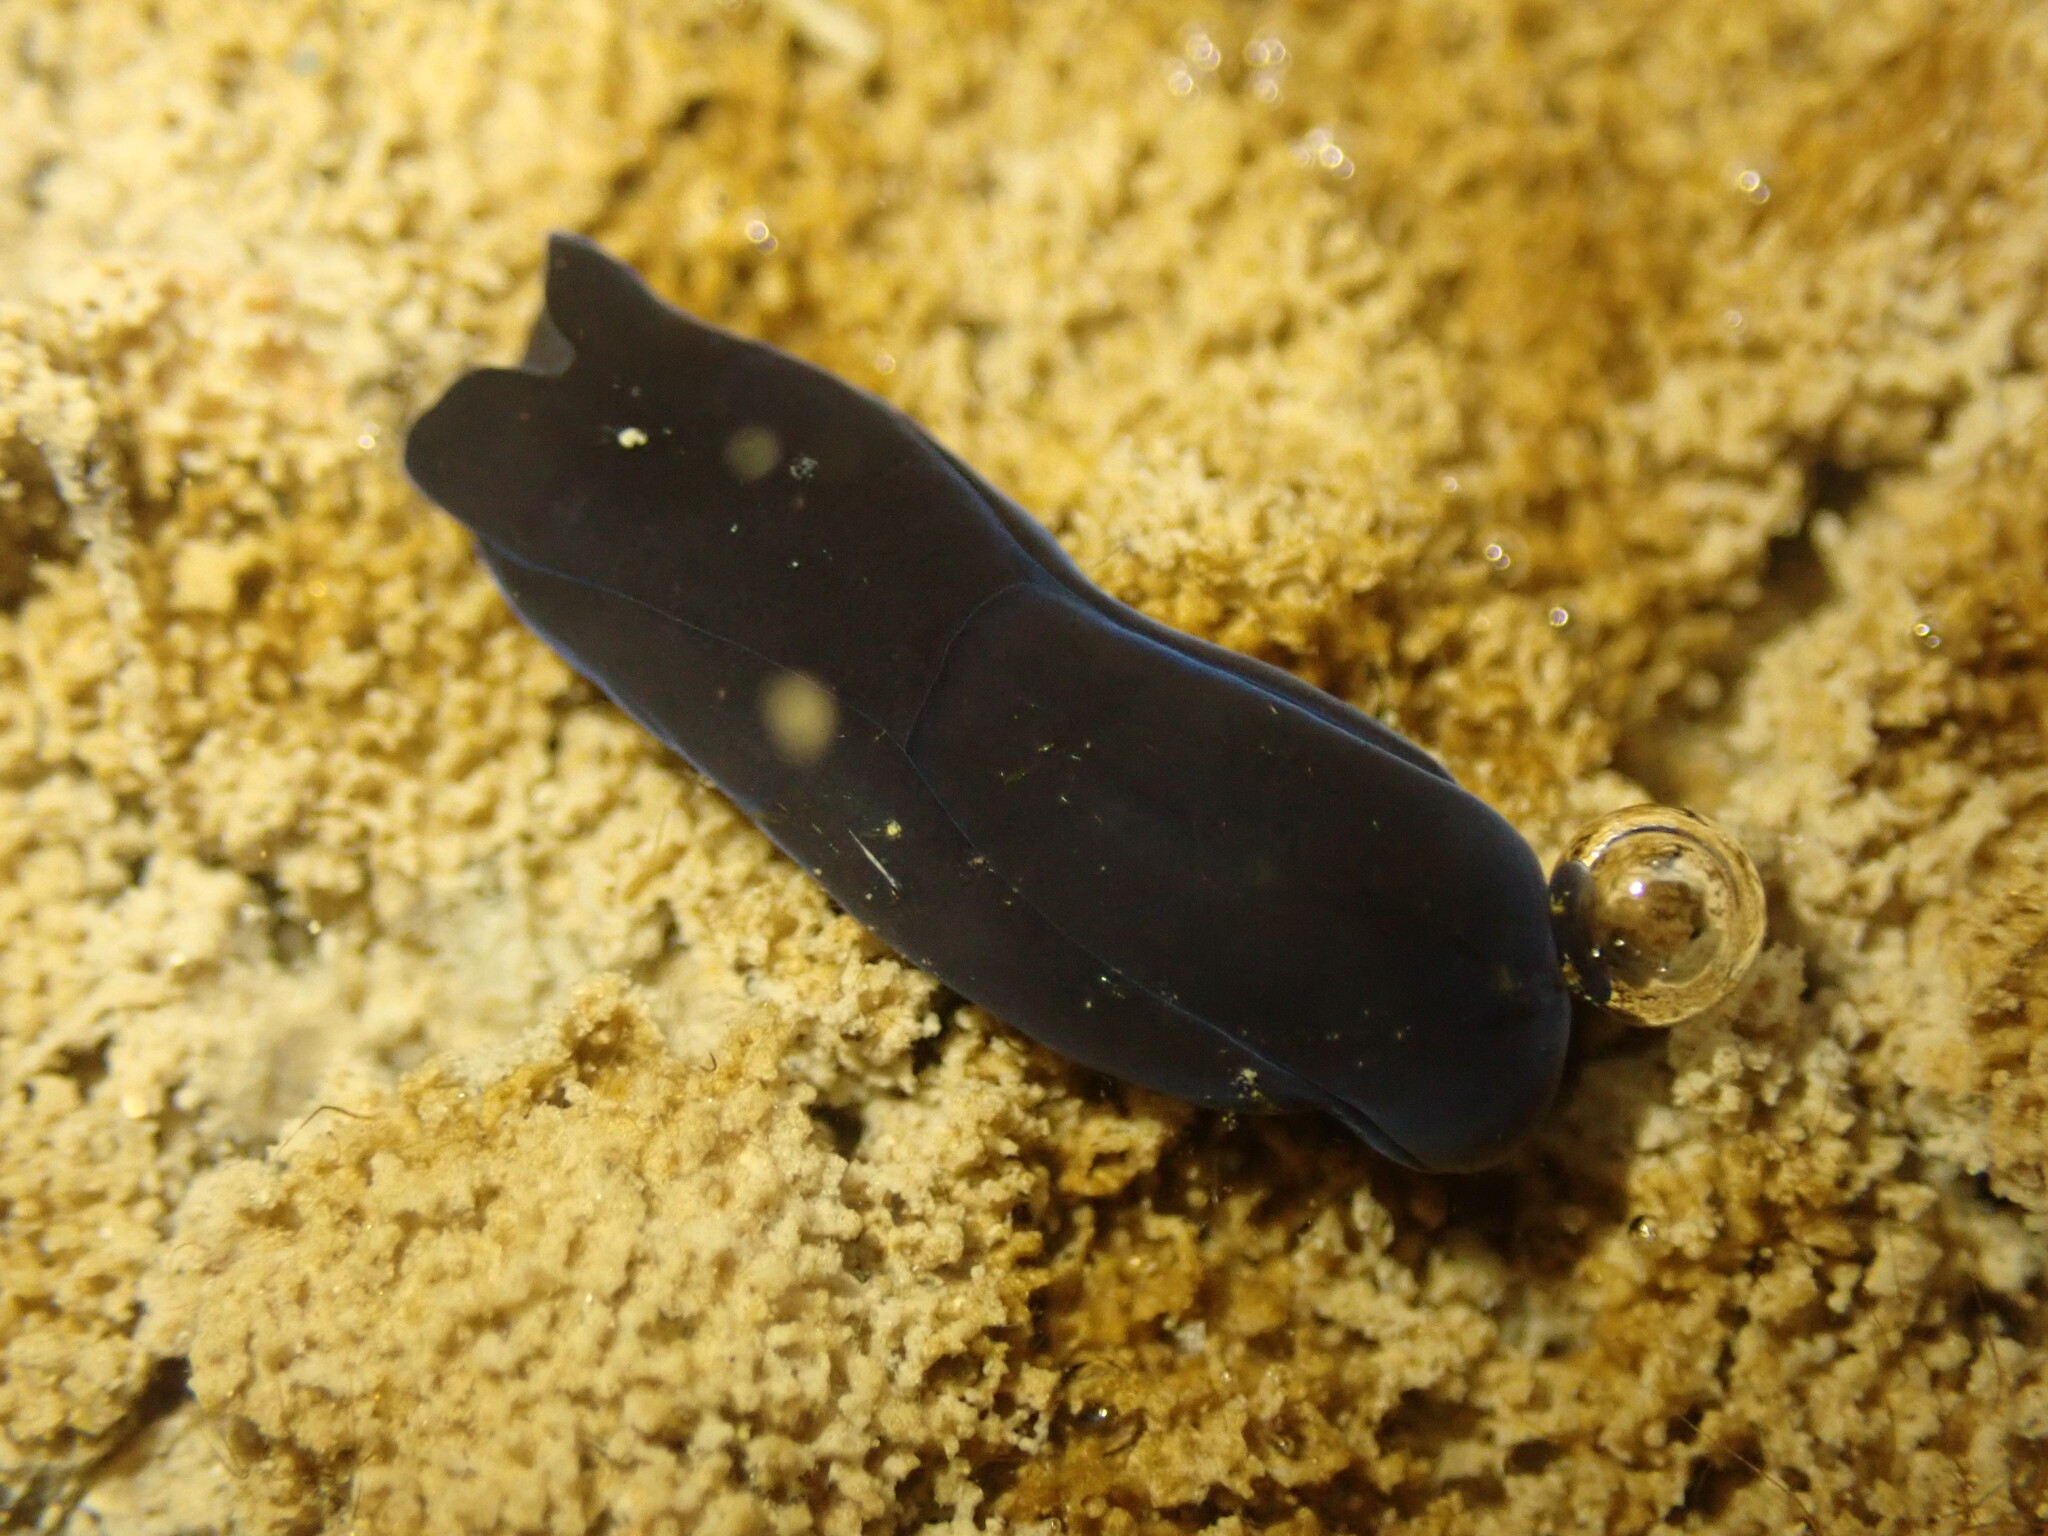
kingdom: Animalia
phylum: Mollusca
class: Gastropoda
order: Cephalaspidea
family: Aglajidae
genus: Melanochlamys
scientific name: Melanochlamys cylindrica
